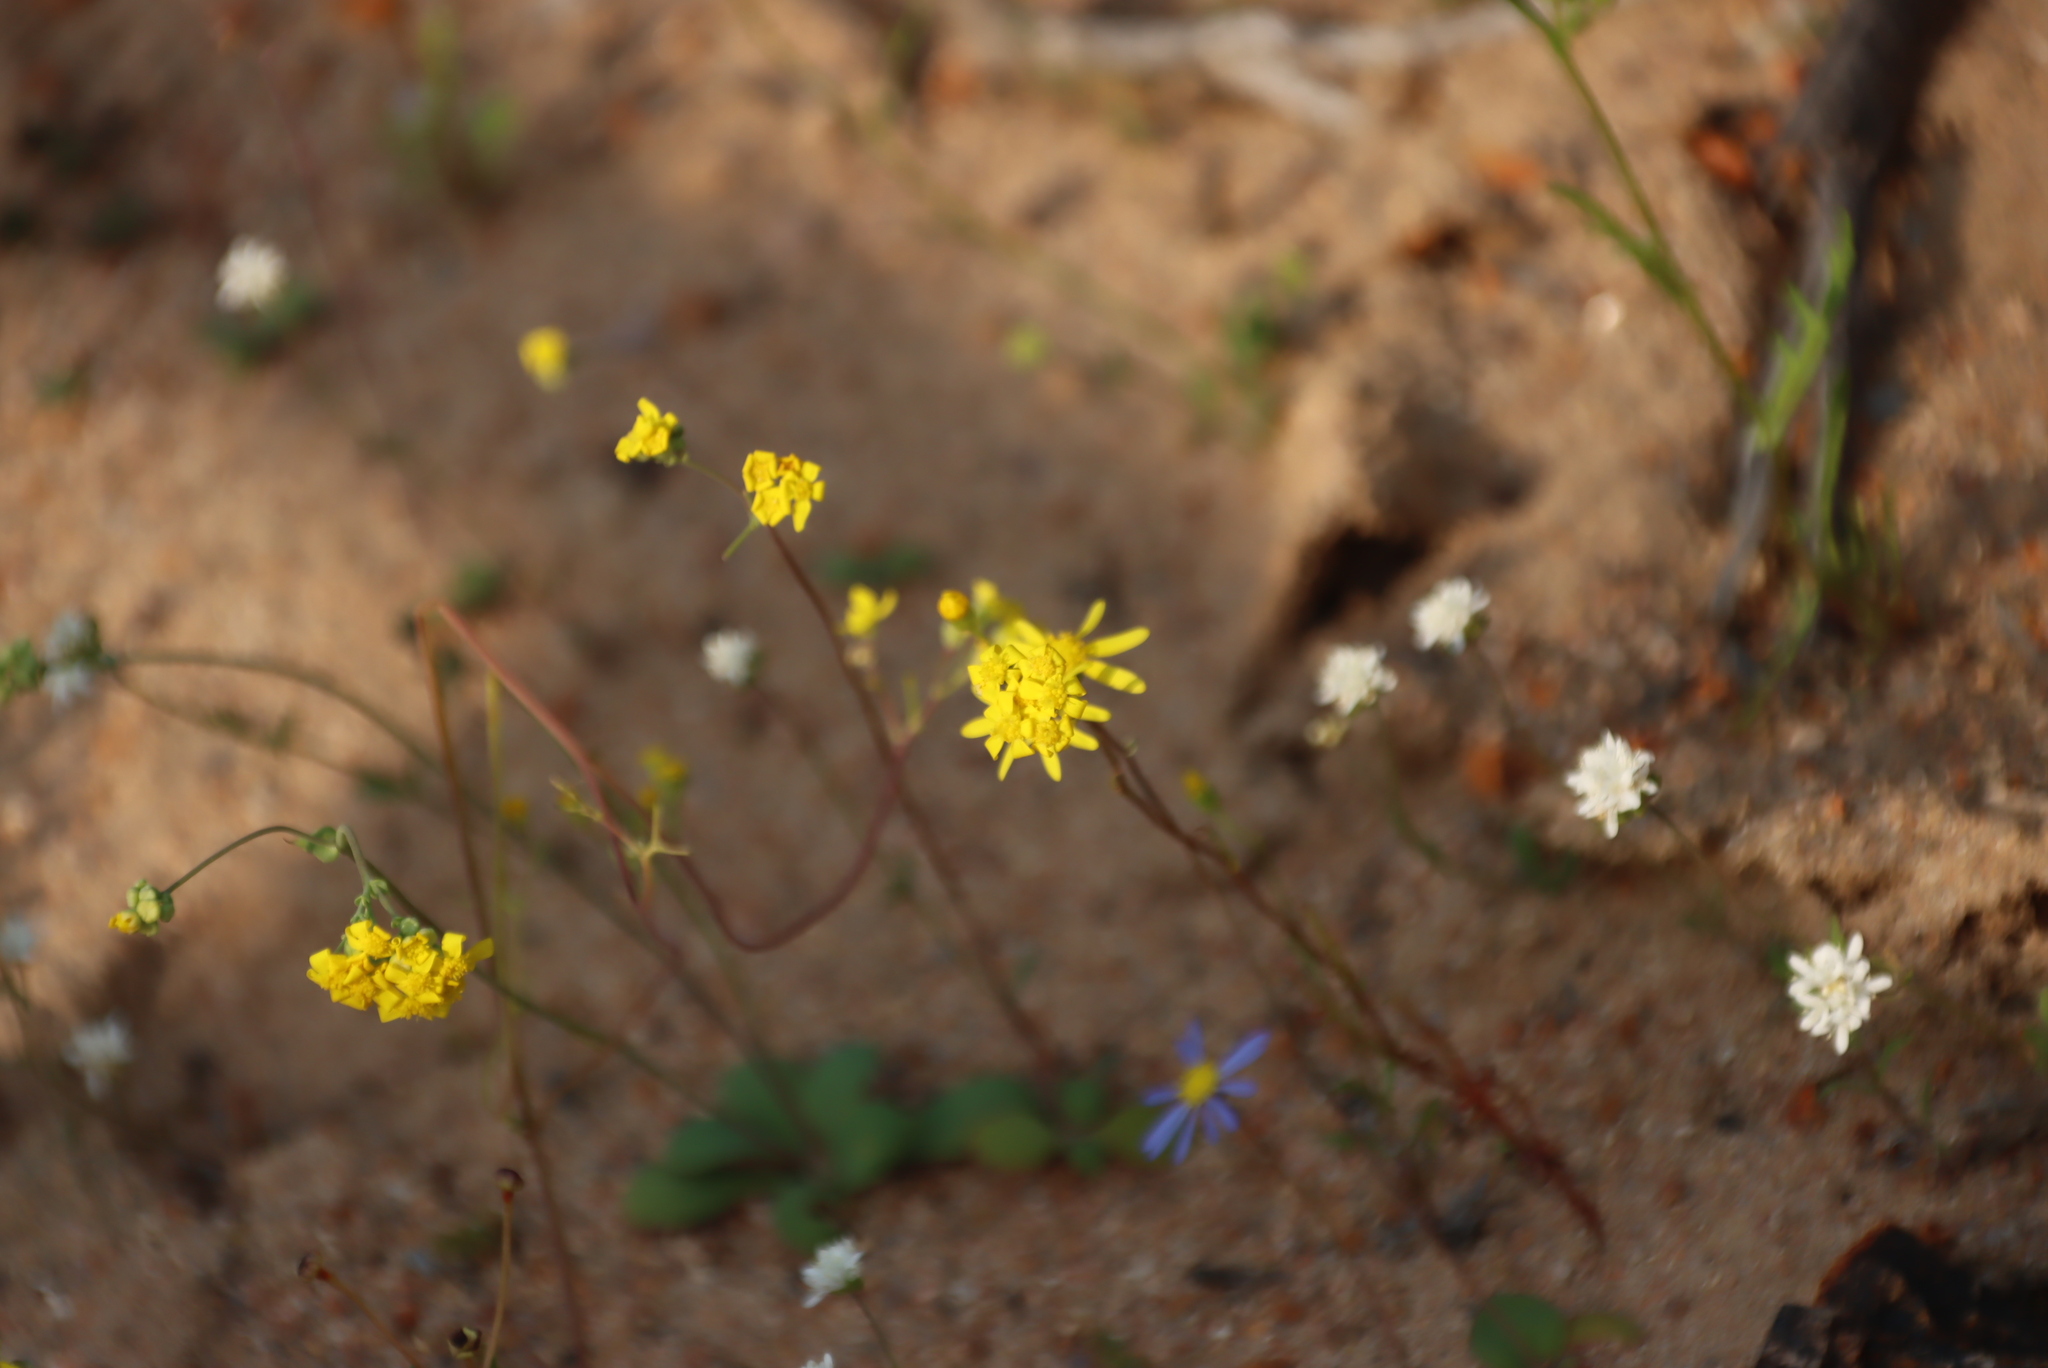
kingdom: Plantae
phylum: Tracheophyta
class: Magnoliopsida
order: Asterales
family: Asteraceae
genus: Gymnodiscus
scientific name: Gymnodiscus capillaris
